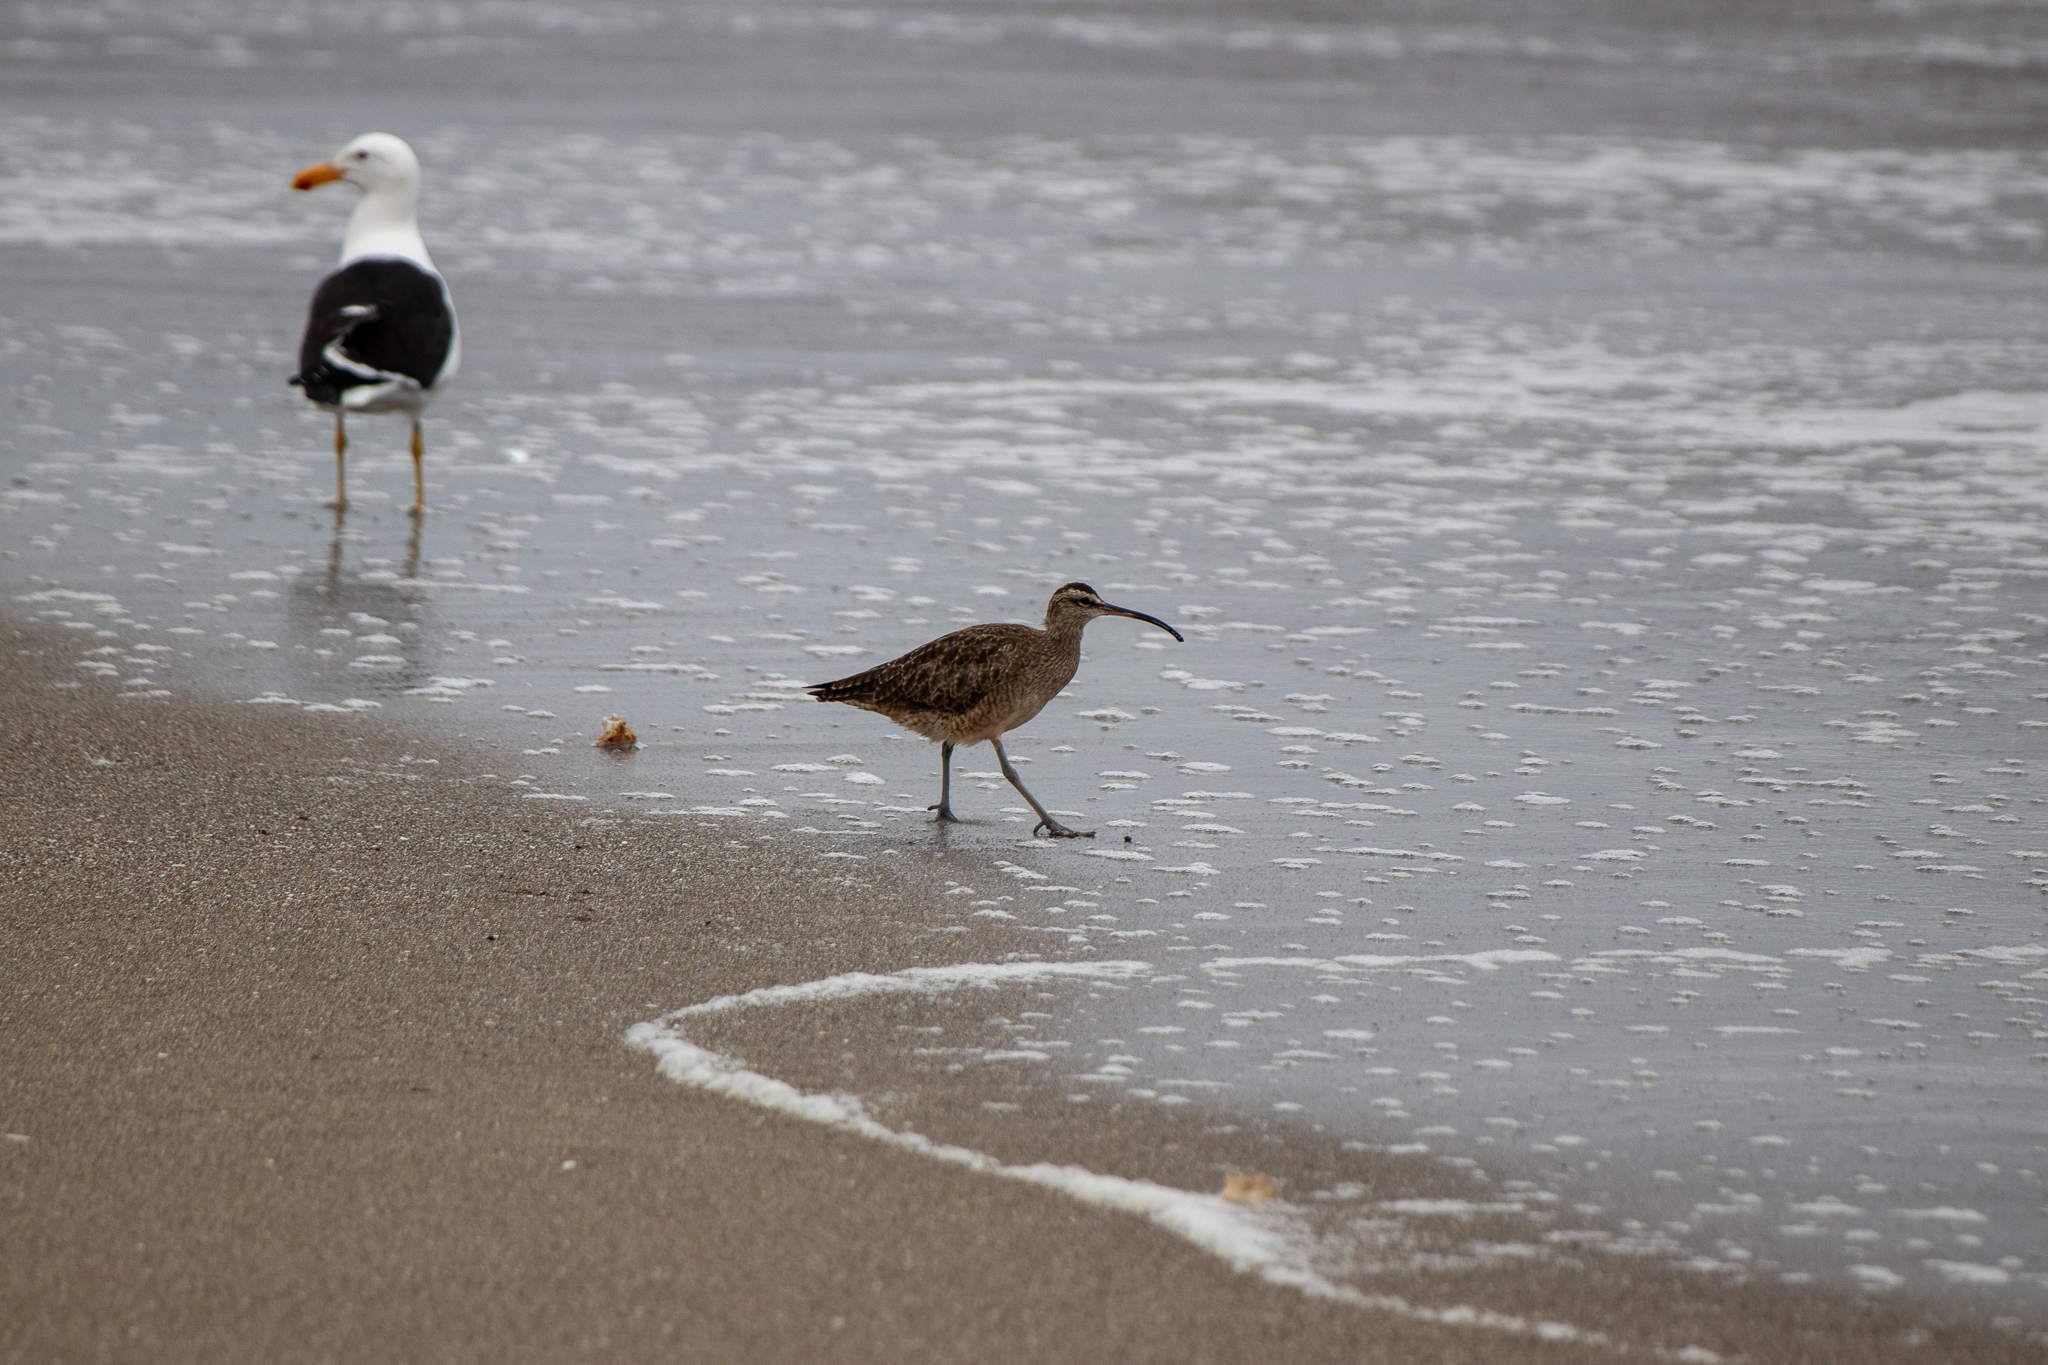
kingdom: Animalia
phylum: Chordata
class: Aves
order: Charadriiformes
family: Scolopacidae
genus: Numenius
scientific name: Numenius phaeopus
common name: Whimbrel
